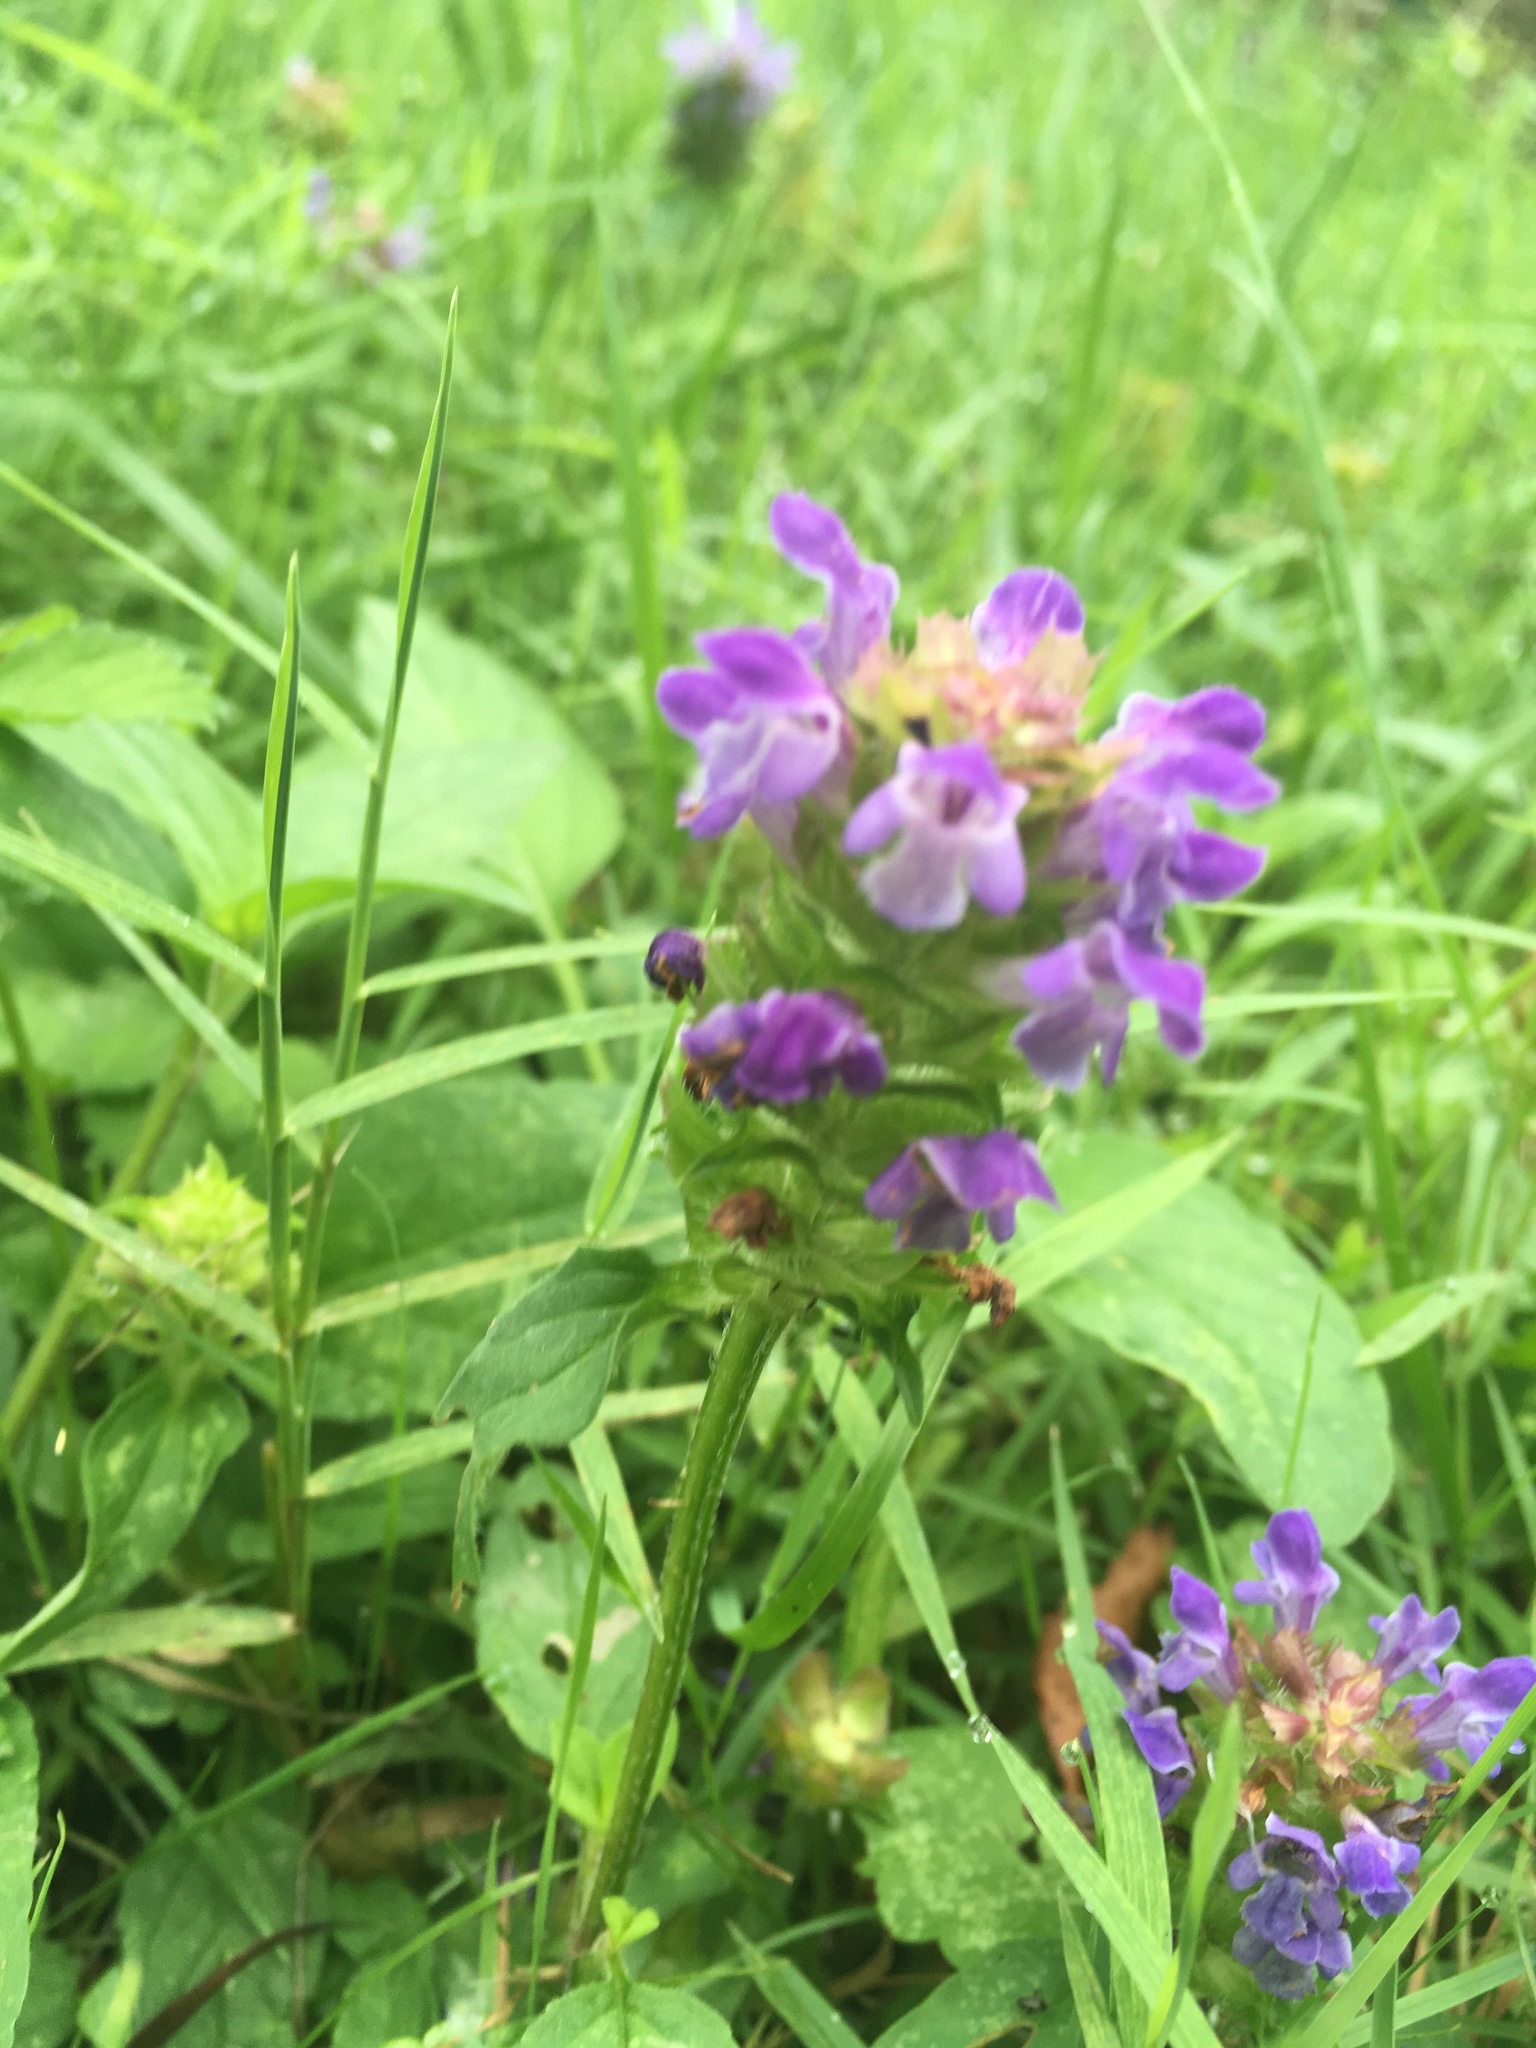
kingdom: Plantae
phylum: Tracheophyta
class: Magnoliopsida
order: Lamiales
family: Lamiaceae
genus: Prunella
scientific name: Prunella vulgaris
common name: Heal-all
